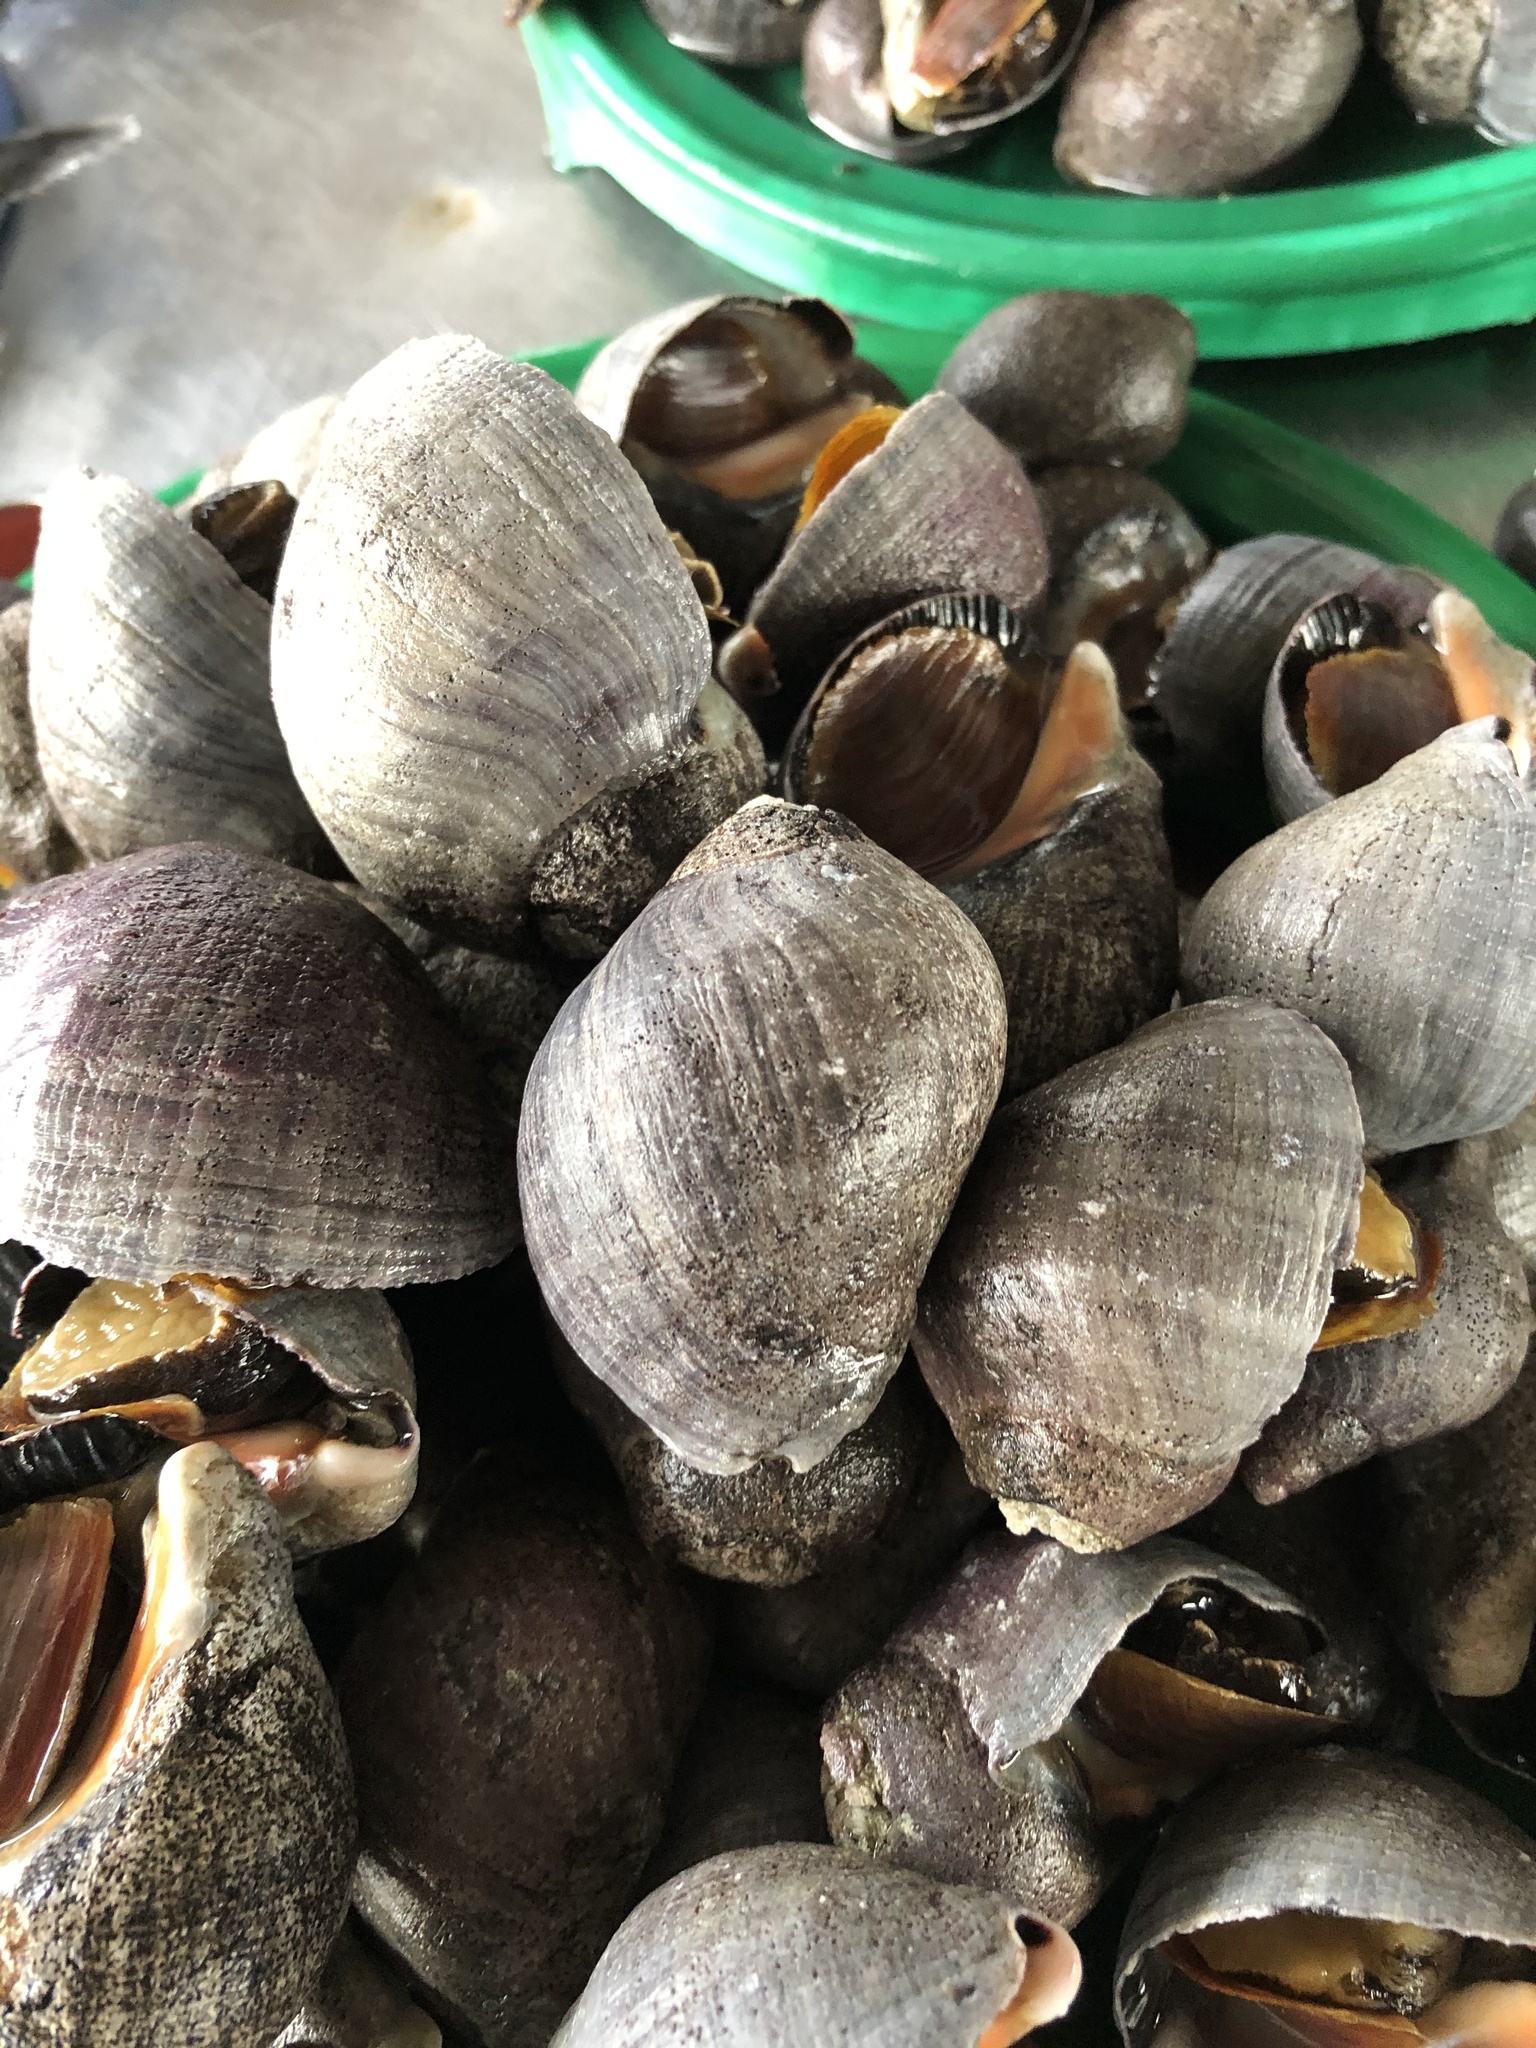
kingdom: Animalia
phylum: Mollusca
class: Gastropoda
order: Neogastropoda
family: Muricidae
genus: Thaisella
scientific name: Thaisella chocolata
